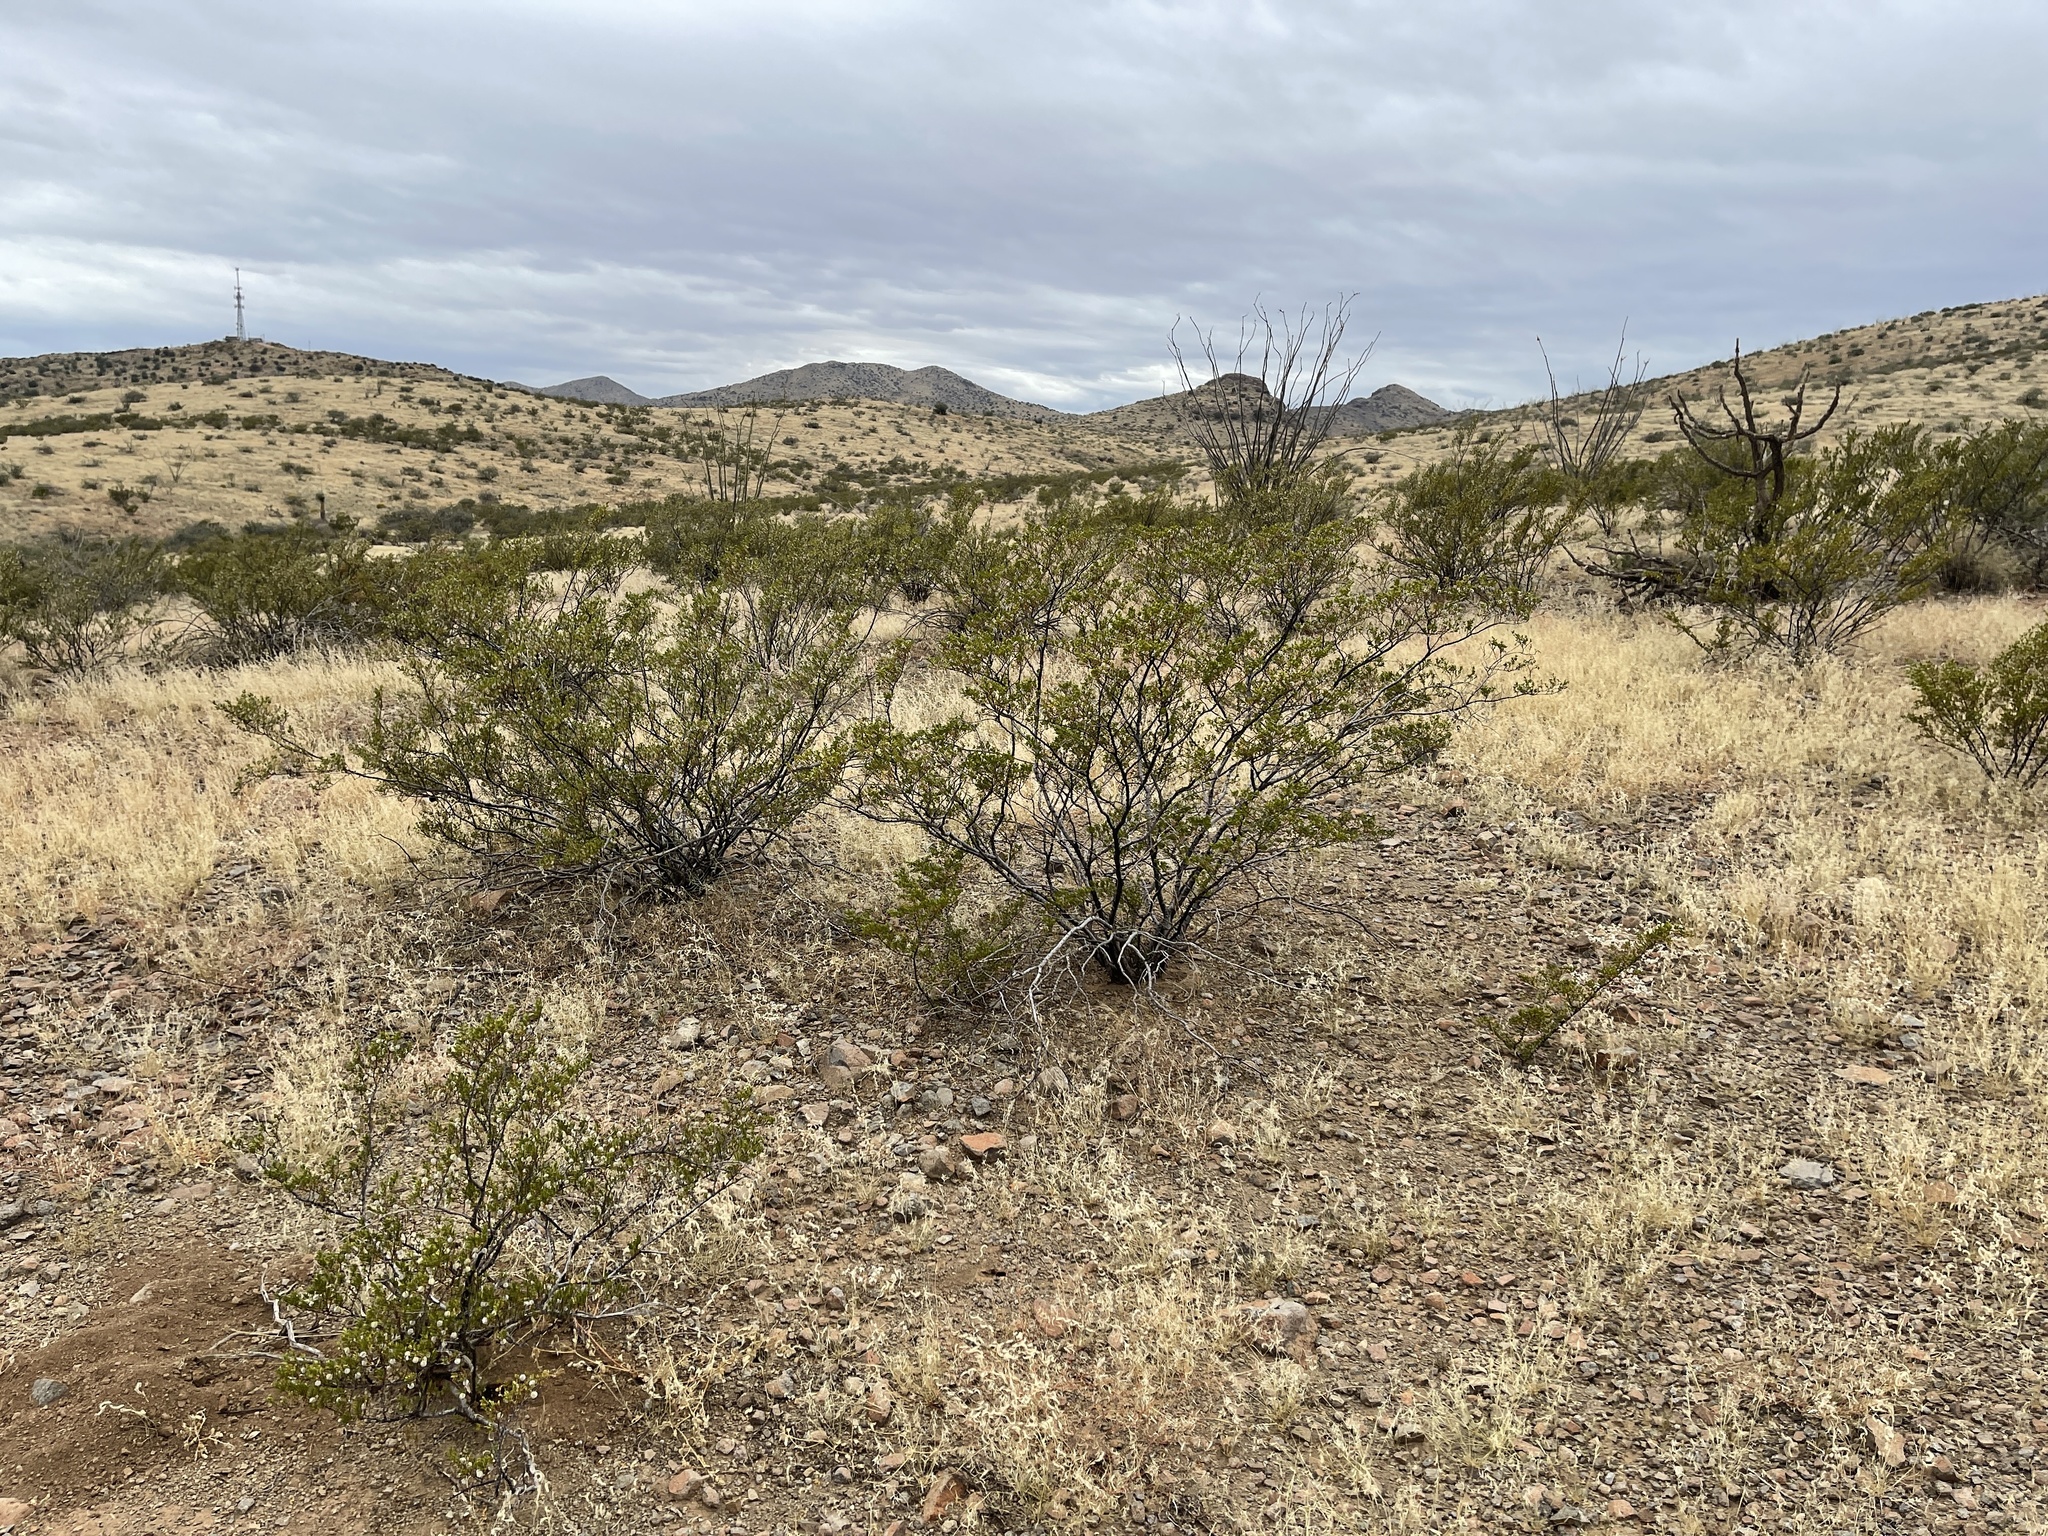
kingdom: Plantae
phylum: Tracheophyta
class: Magnoliopsida
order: Zygophyllales
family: Zygophyllaceae
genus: Larrea
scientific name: Larrea tridentata
